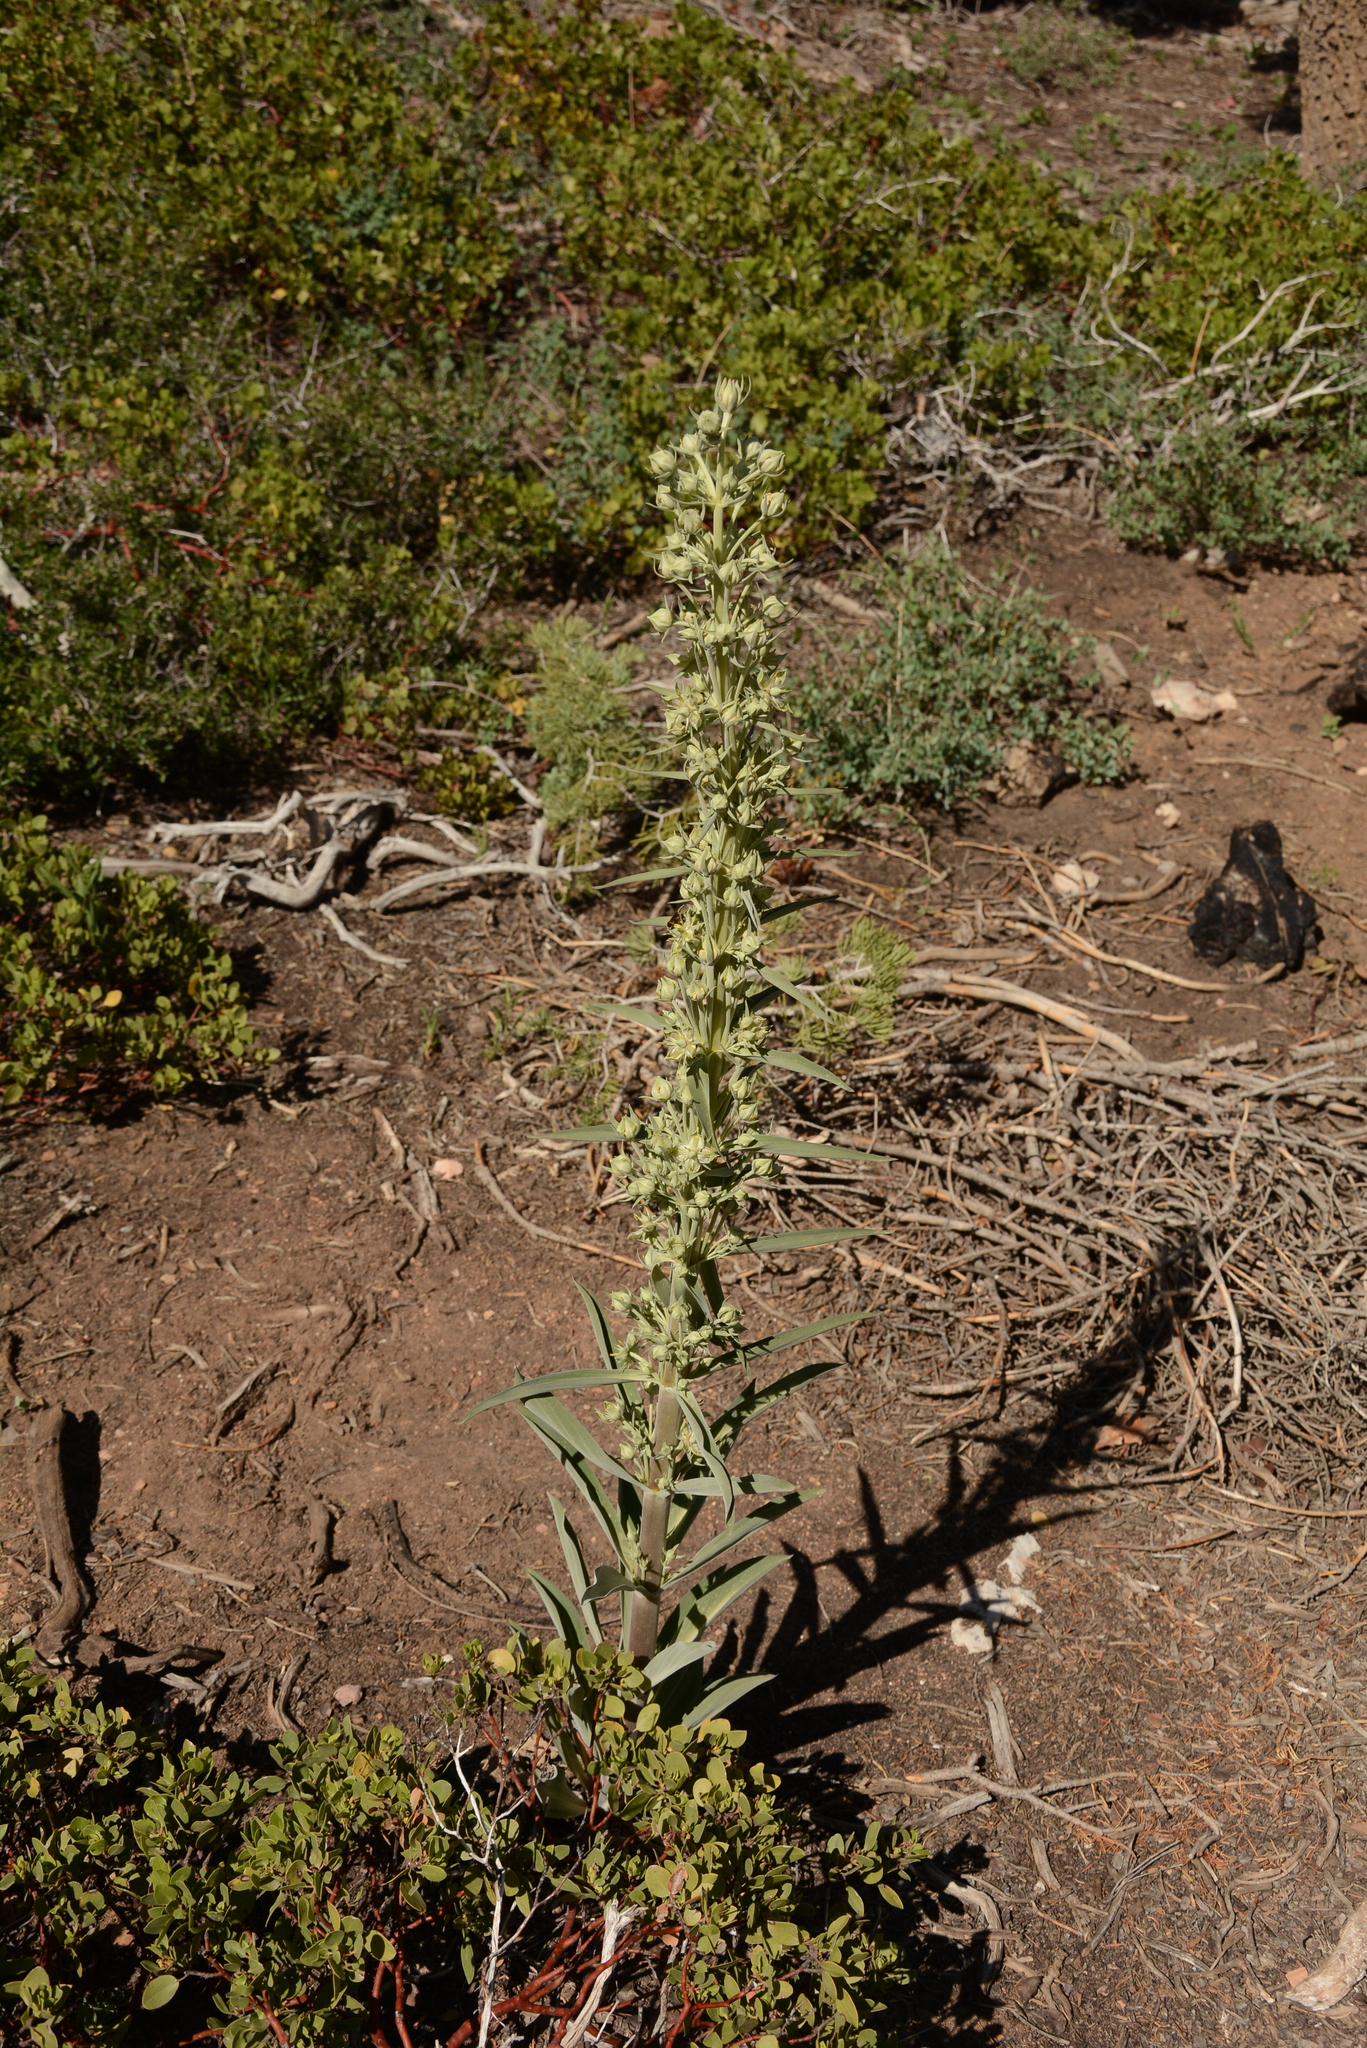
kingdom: Plantae
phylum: Tracheophyta
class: Magnoliopsida
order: Gentianales
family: Gentianaceae
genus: Frasera
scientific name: Frasera speciosa
